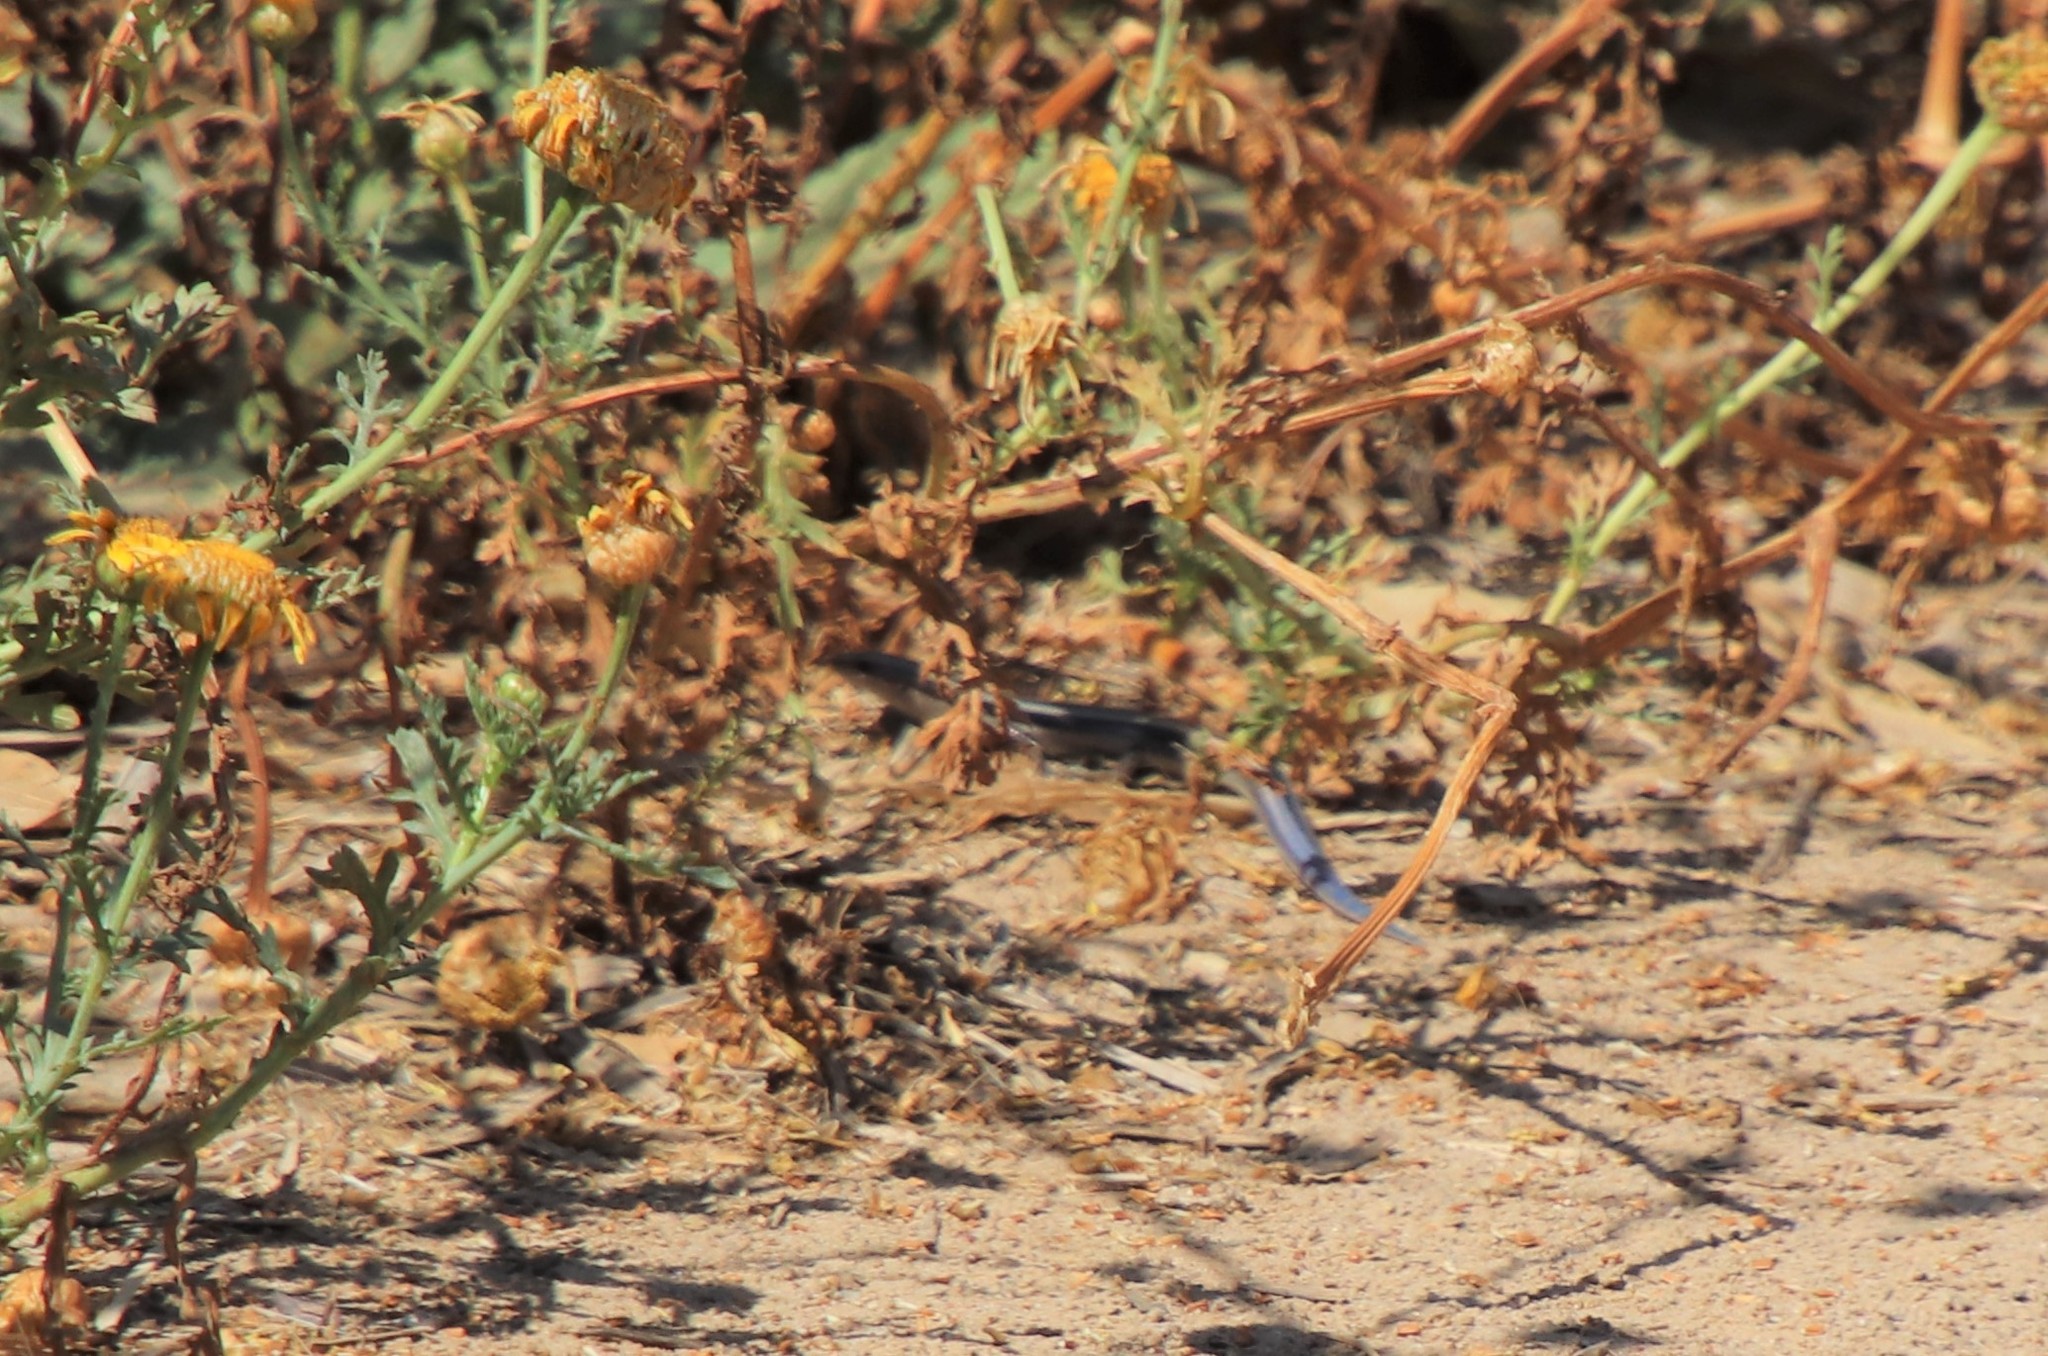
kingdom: Animalia
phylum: Chordata
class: Squamata
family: Teiidae
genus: Aspidoscelis
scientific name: Aspidoscelis hyperythrus
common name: Orange-throated race-runner
